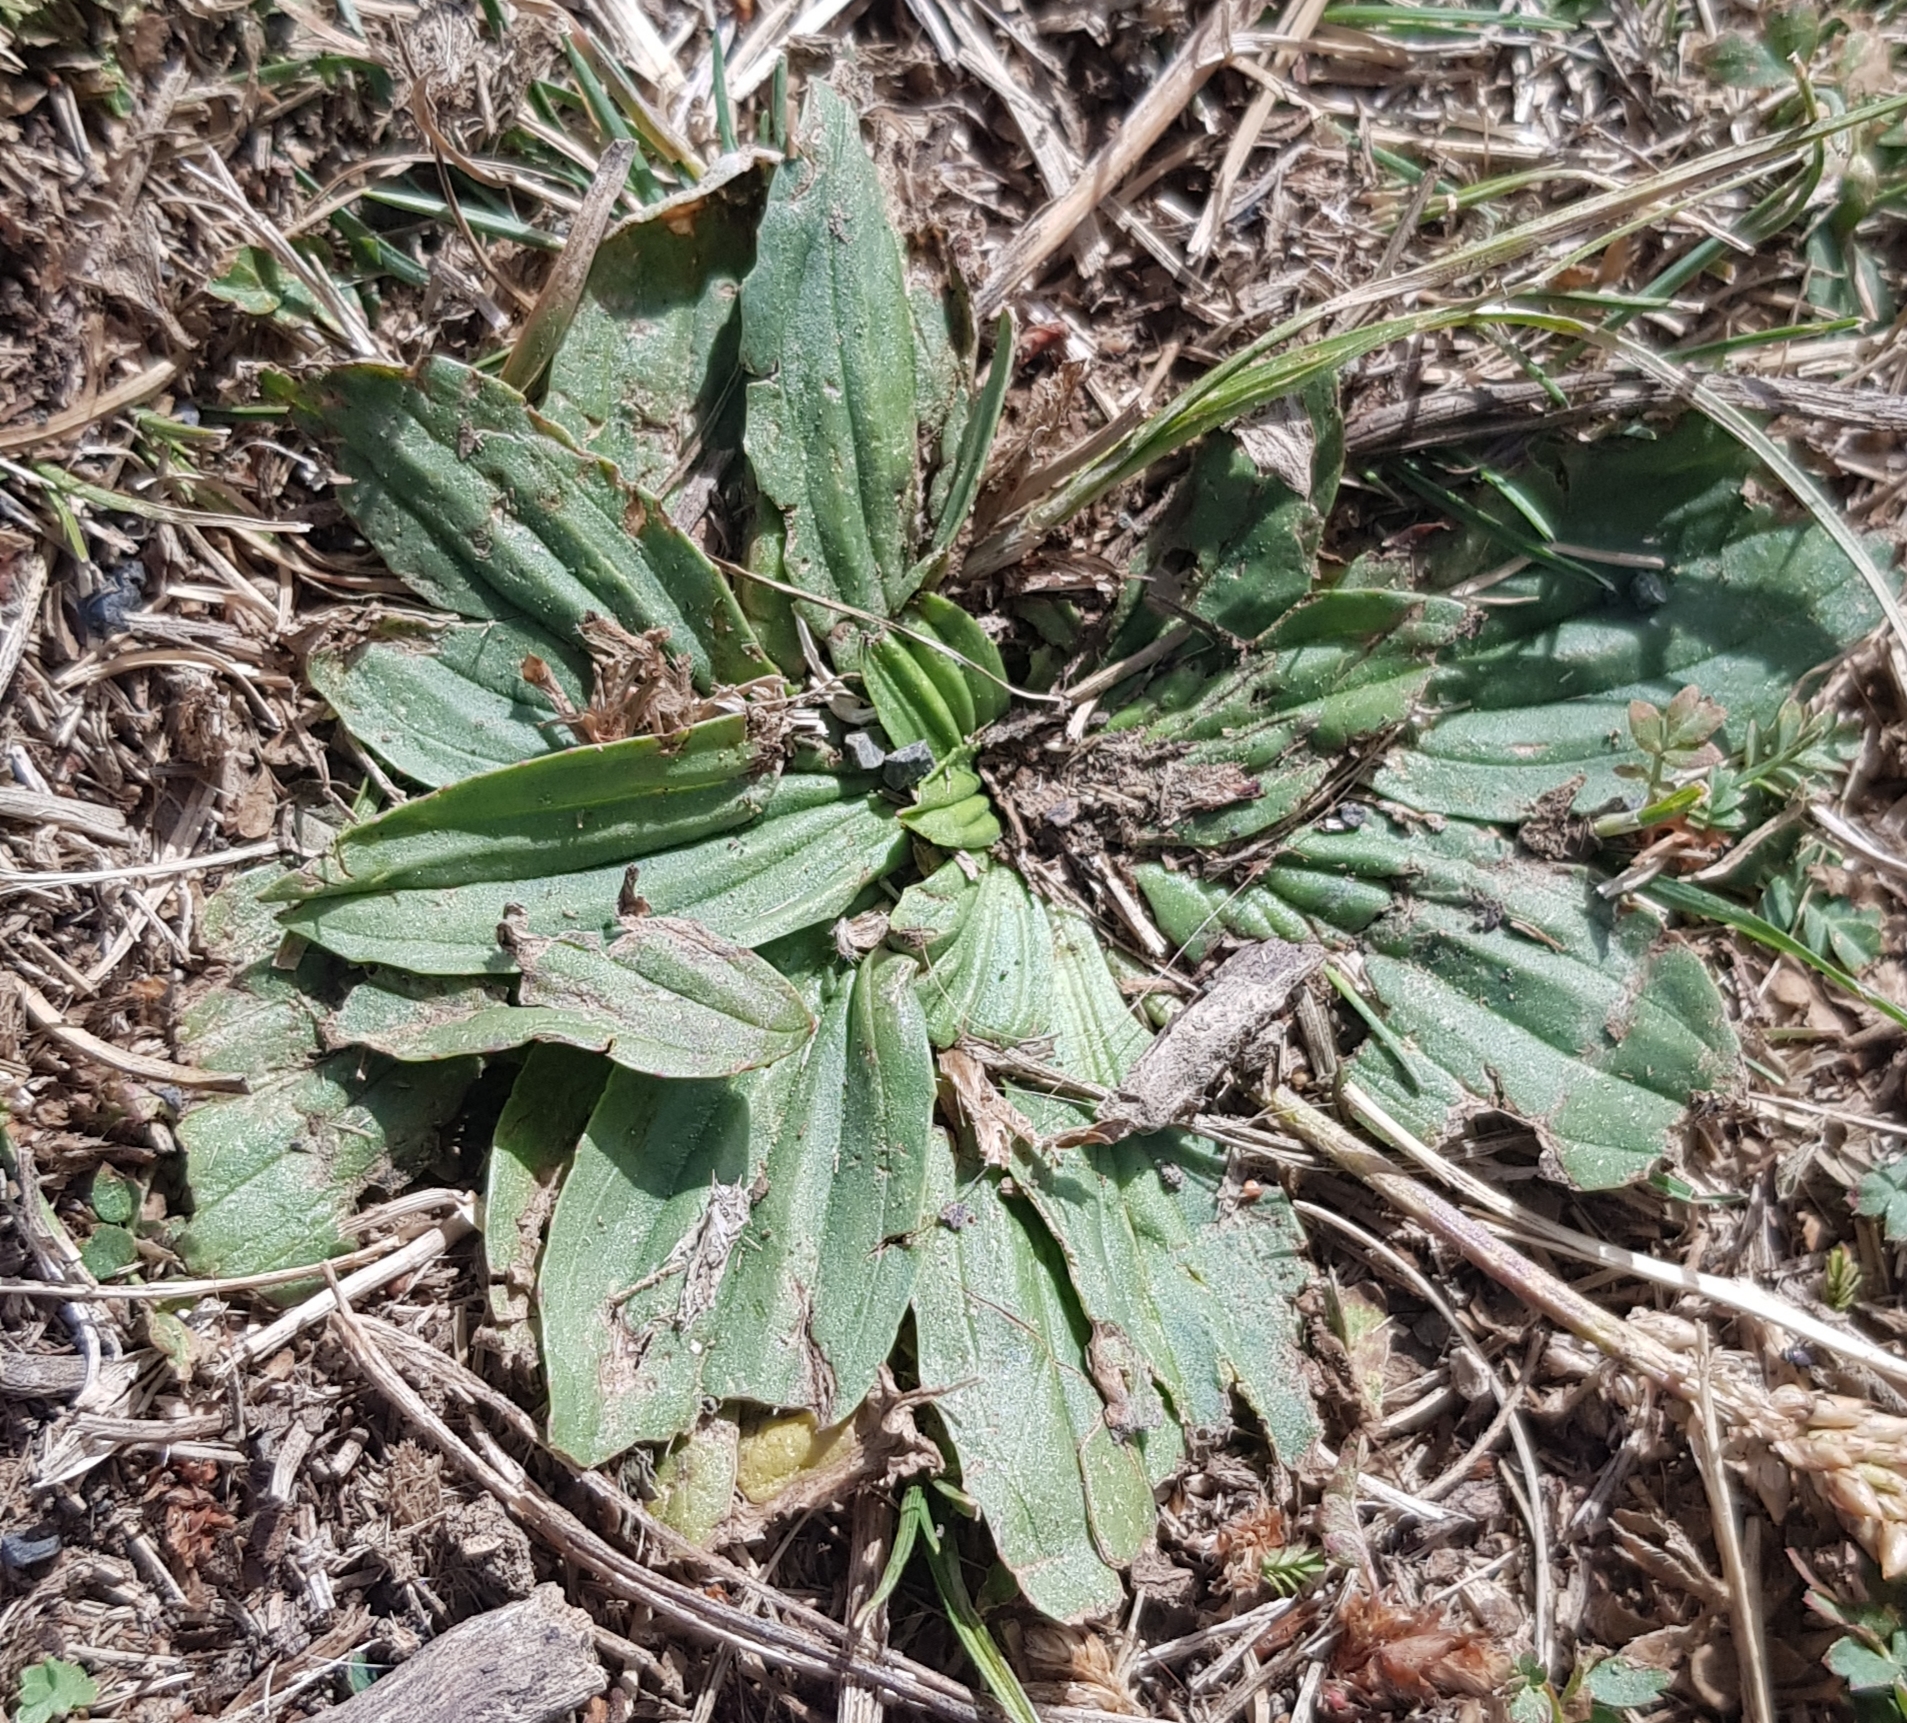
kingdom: Plantae
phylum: Tracheophyta
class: Magnoliopsida
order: Lamiales
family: Plantaginaceae
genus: Plantago
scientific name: Plantago depressa
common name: Depressed plantain
